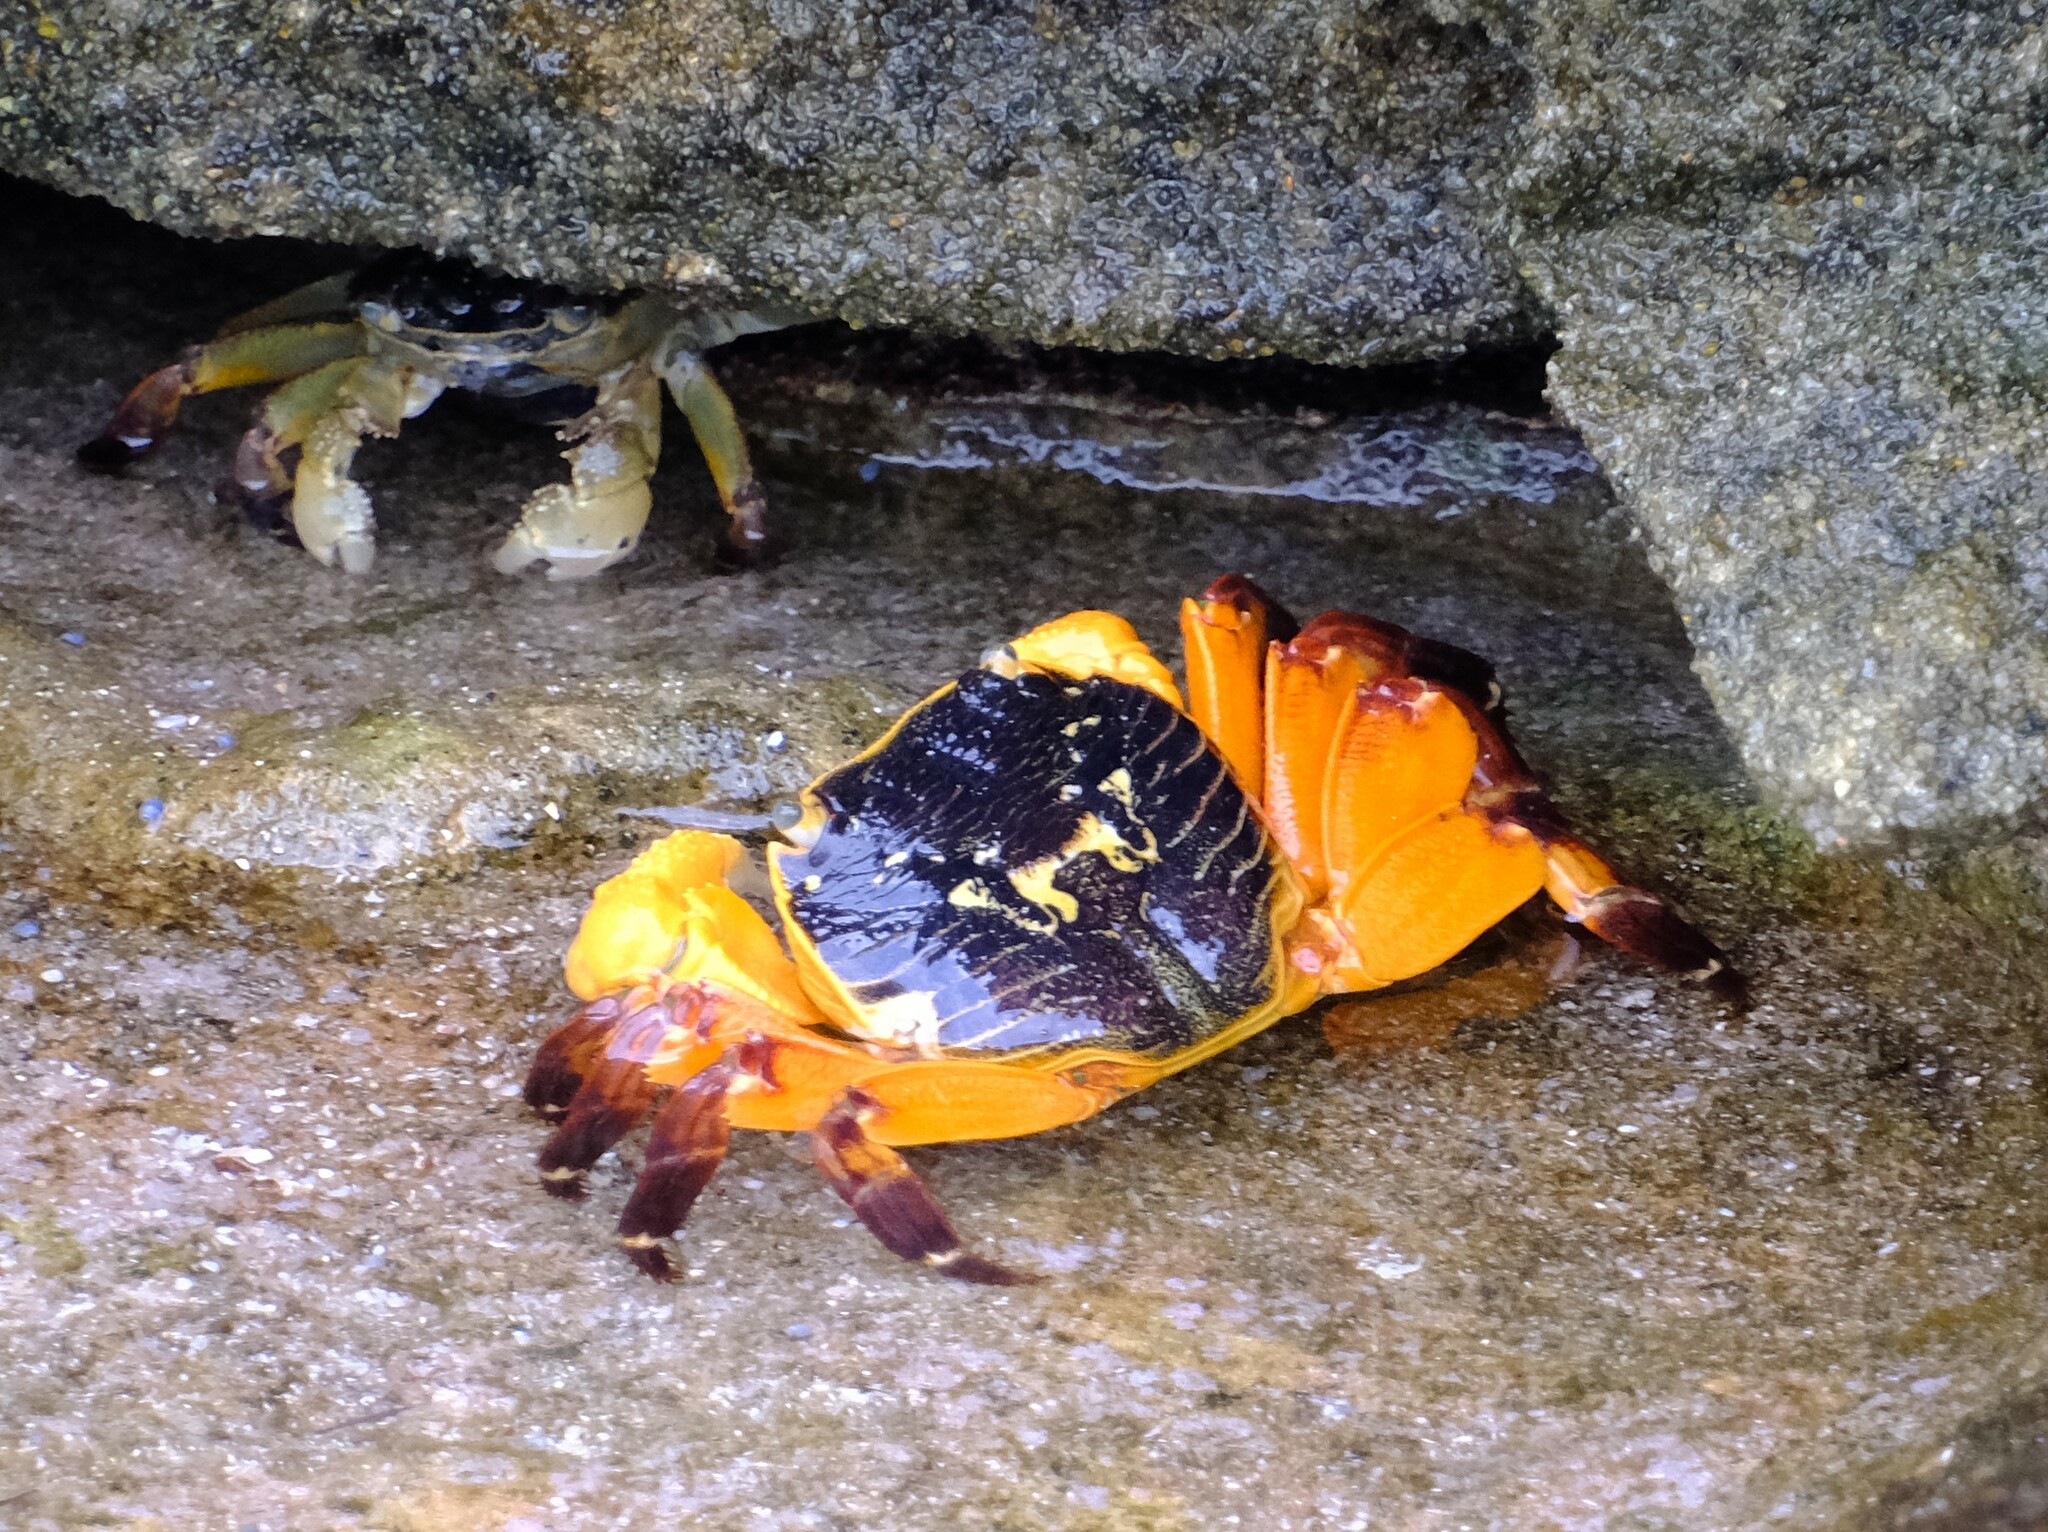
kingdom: Animalia
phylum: Arthropoda
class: Malacostraca
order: Decapoda
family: Grapsidae
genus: Leptograpsus
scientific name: Leptograpsus variegatus
